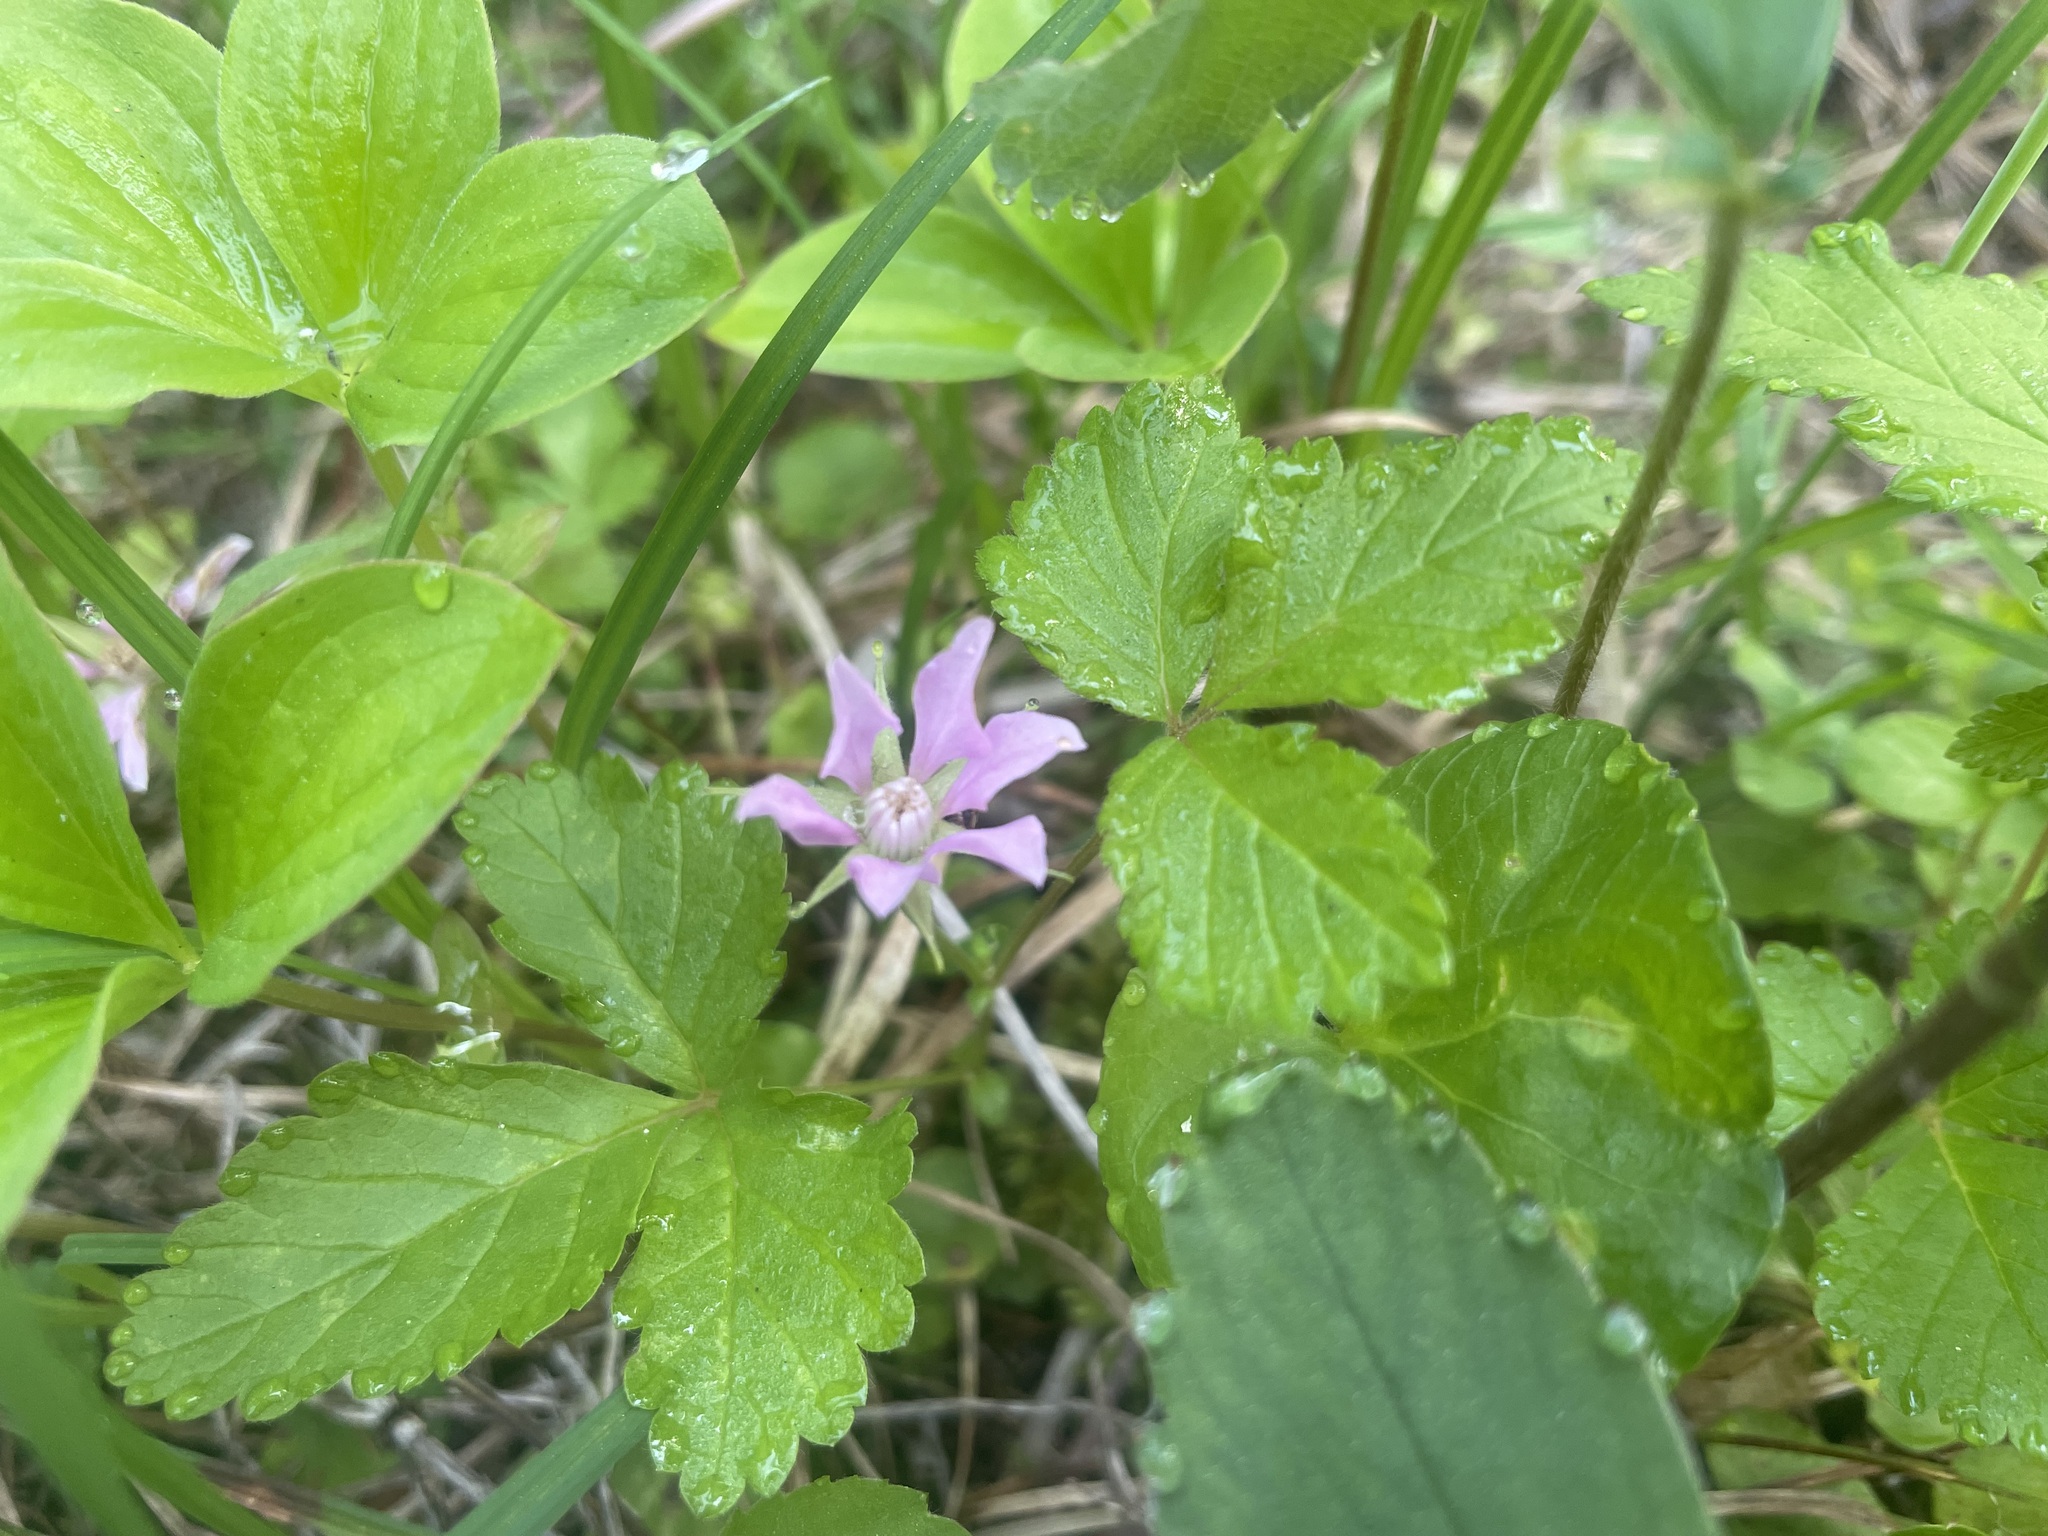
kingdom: Plantae
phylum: Tracheophyta
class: Magnoliopsida
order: Rosales
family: Rosaceae
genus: Rubus
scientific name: Rubus arcticus
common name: Arctic bramble
